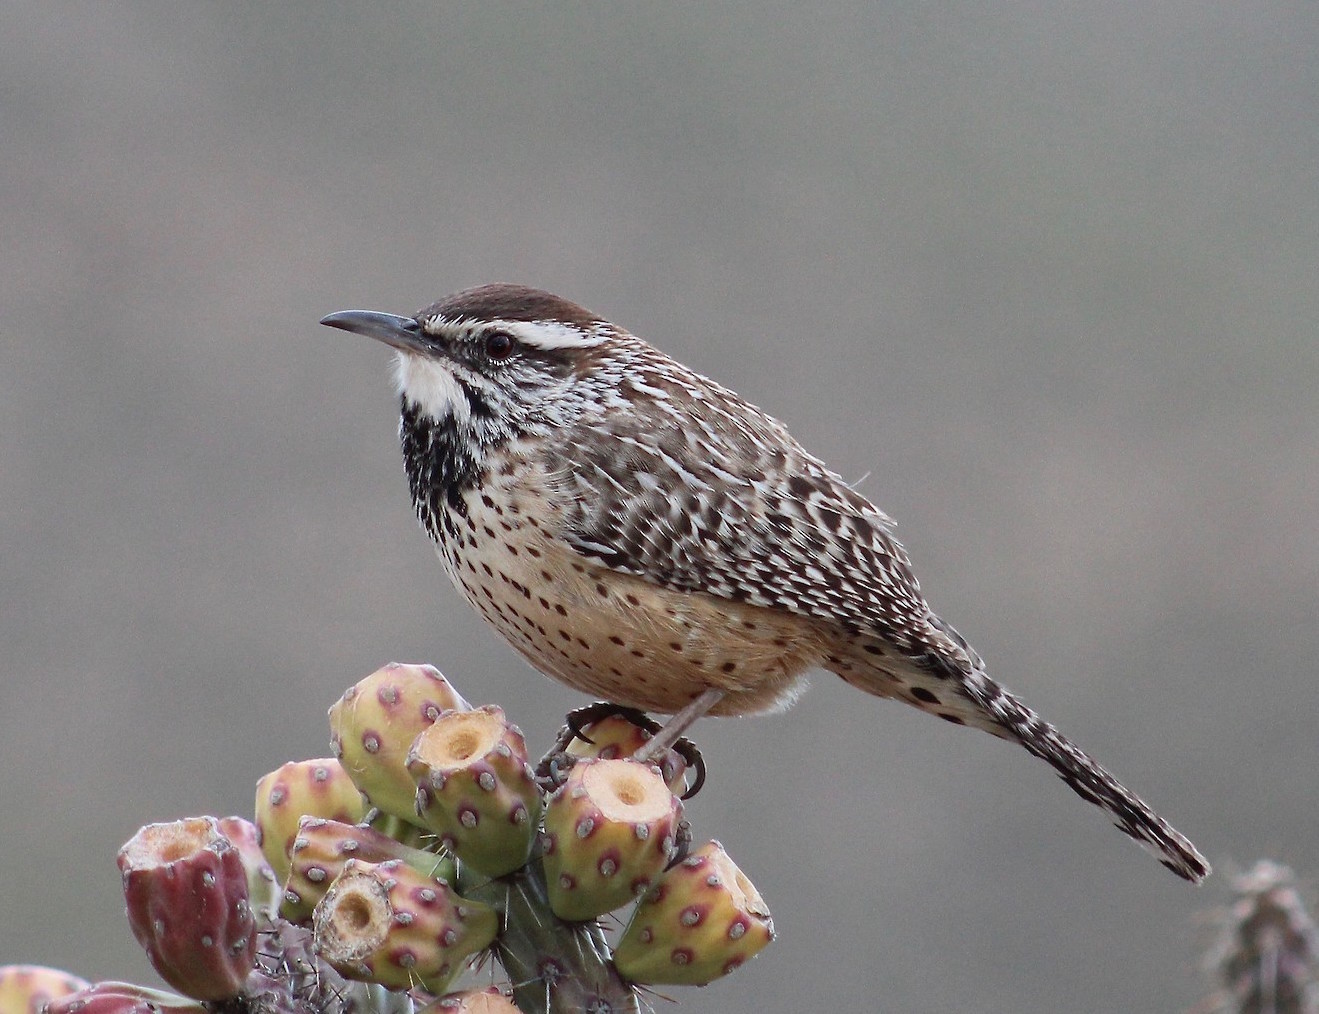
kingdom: Animalia
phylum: Chordata
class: Aves
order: Passeriformes
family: Troglodytidae
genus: Campylorhynchus
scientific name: Campylorhynchus brunneicapillus
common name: Cactus wren
